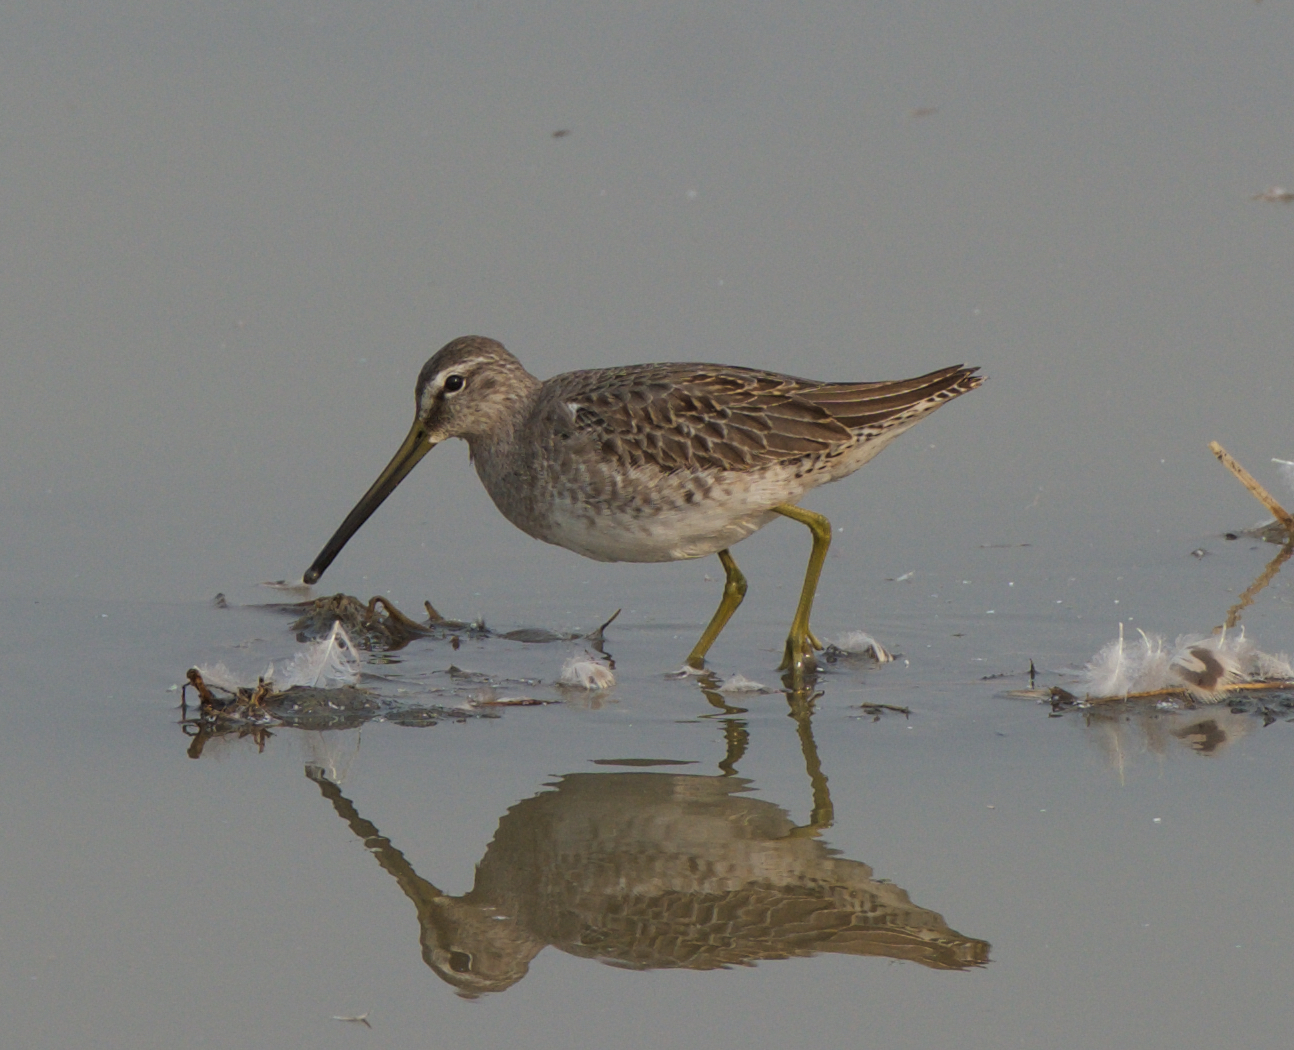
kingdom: Animalia
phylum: Chordata
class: Aves
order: Charadriiformes
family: Scolopacidae
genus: Limnodromus
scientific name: Limnodromus scolopaceus
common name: Long-billed dowitcher
